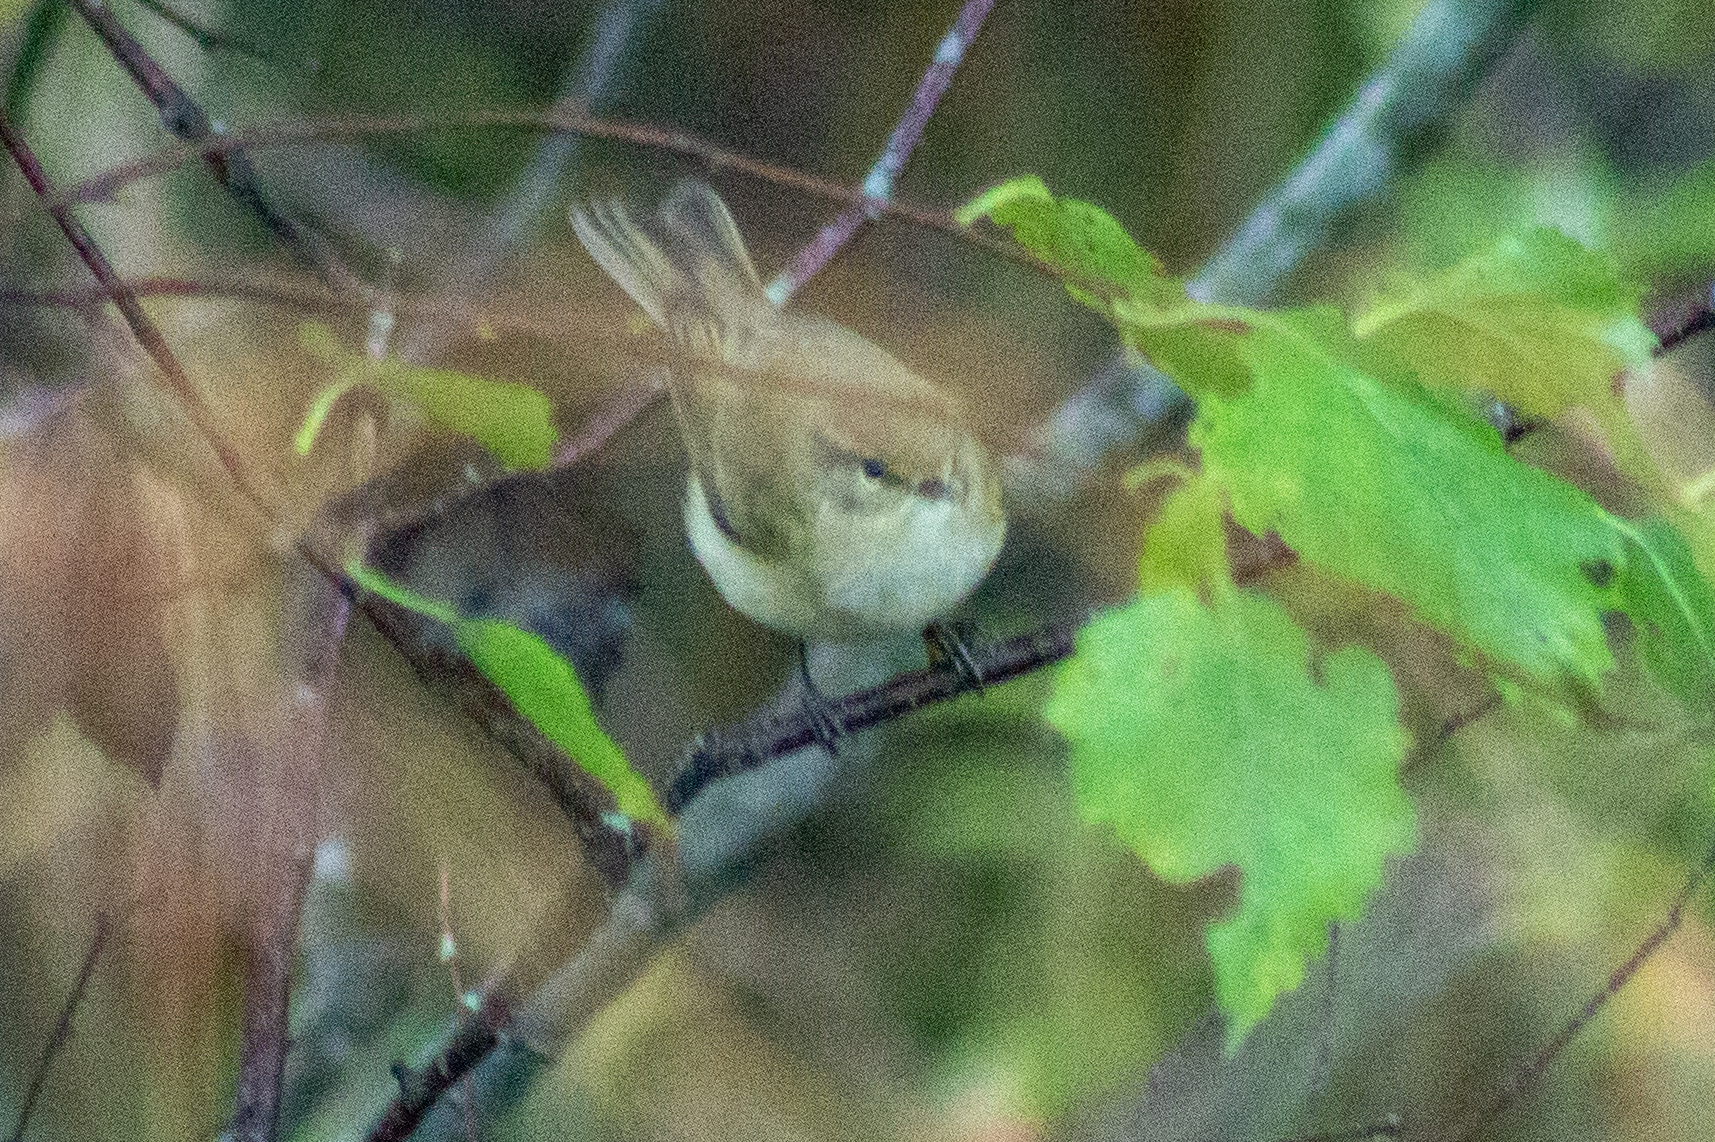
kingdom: Animalia
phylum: Chordata
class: Aves
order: Passeriformes
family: Phylloscopidae
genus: Phylloscopus
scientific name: Phylloscopus collybita
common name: Common chiffchaff
